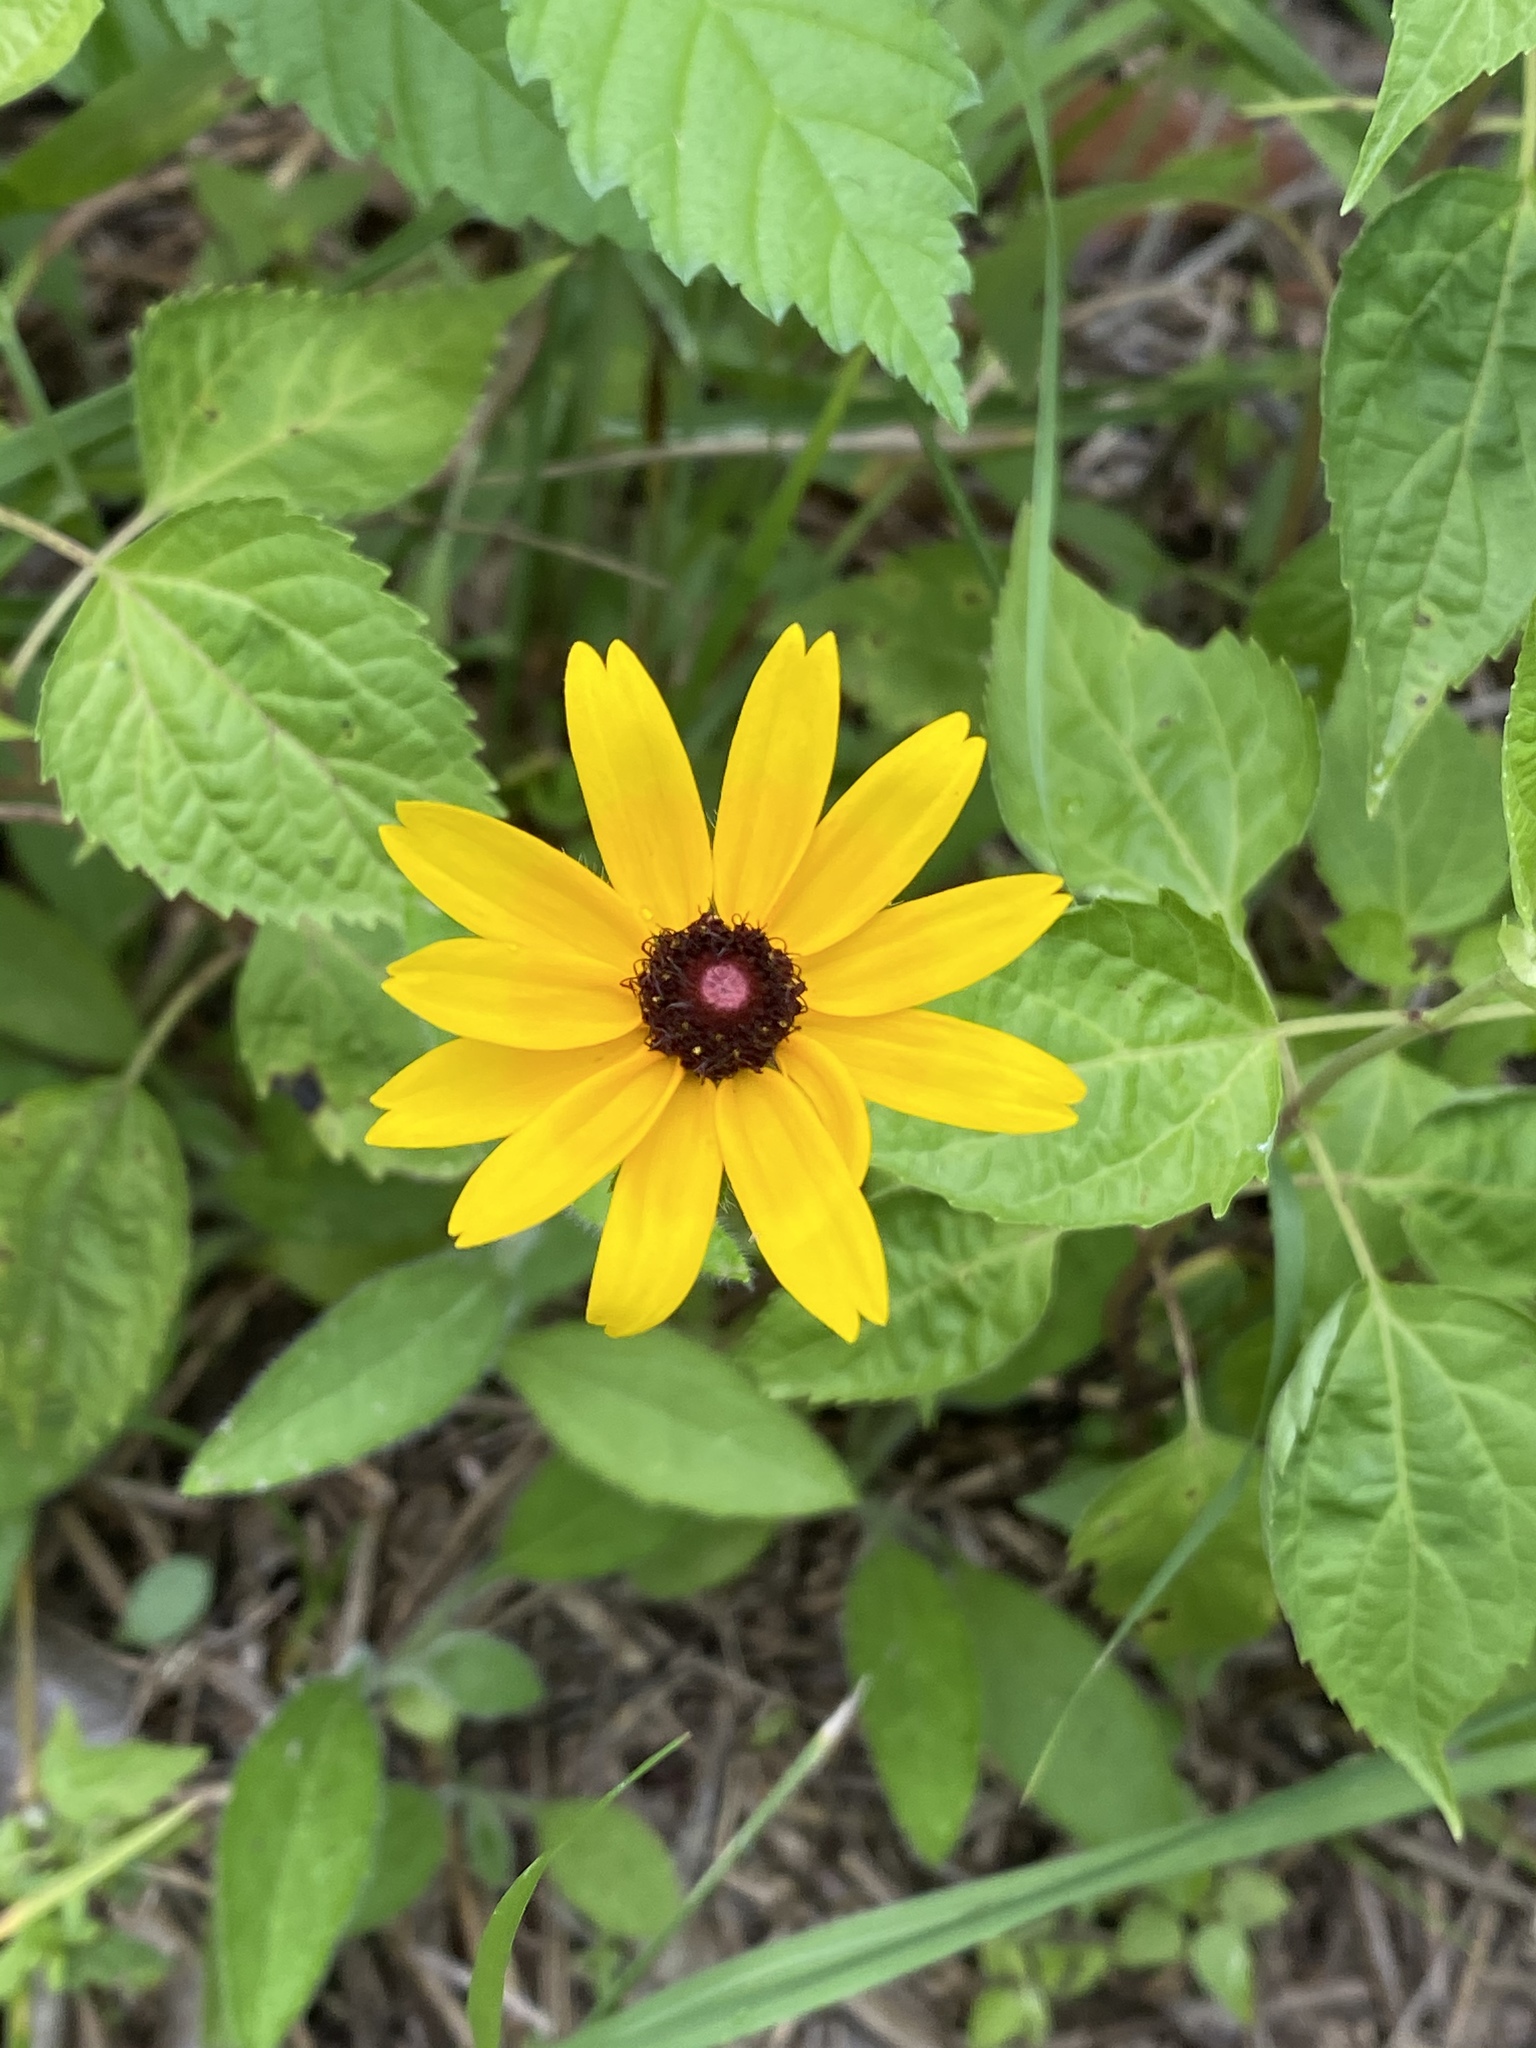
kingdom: Plantae
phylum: Tracheophyta
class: Magnoliopsida
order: Asterales
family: Asteraceae
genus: Rudbeckia
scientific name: Rudbeckia hirta
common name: Black-eyed-susan
